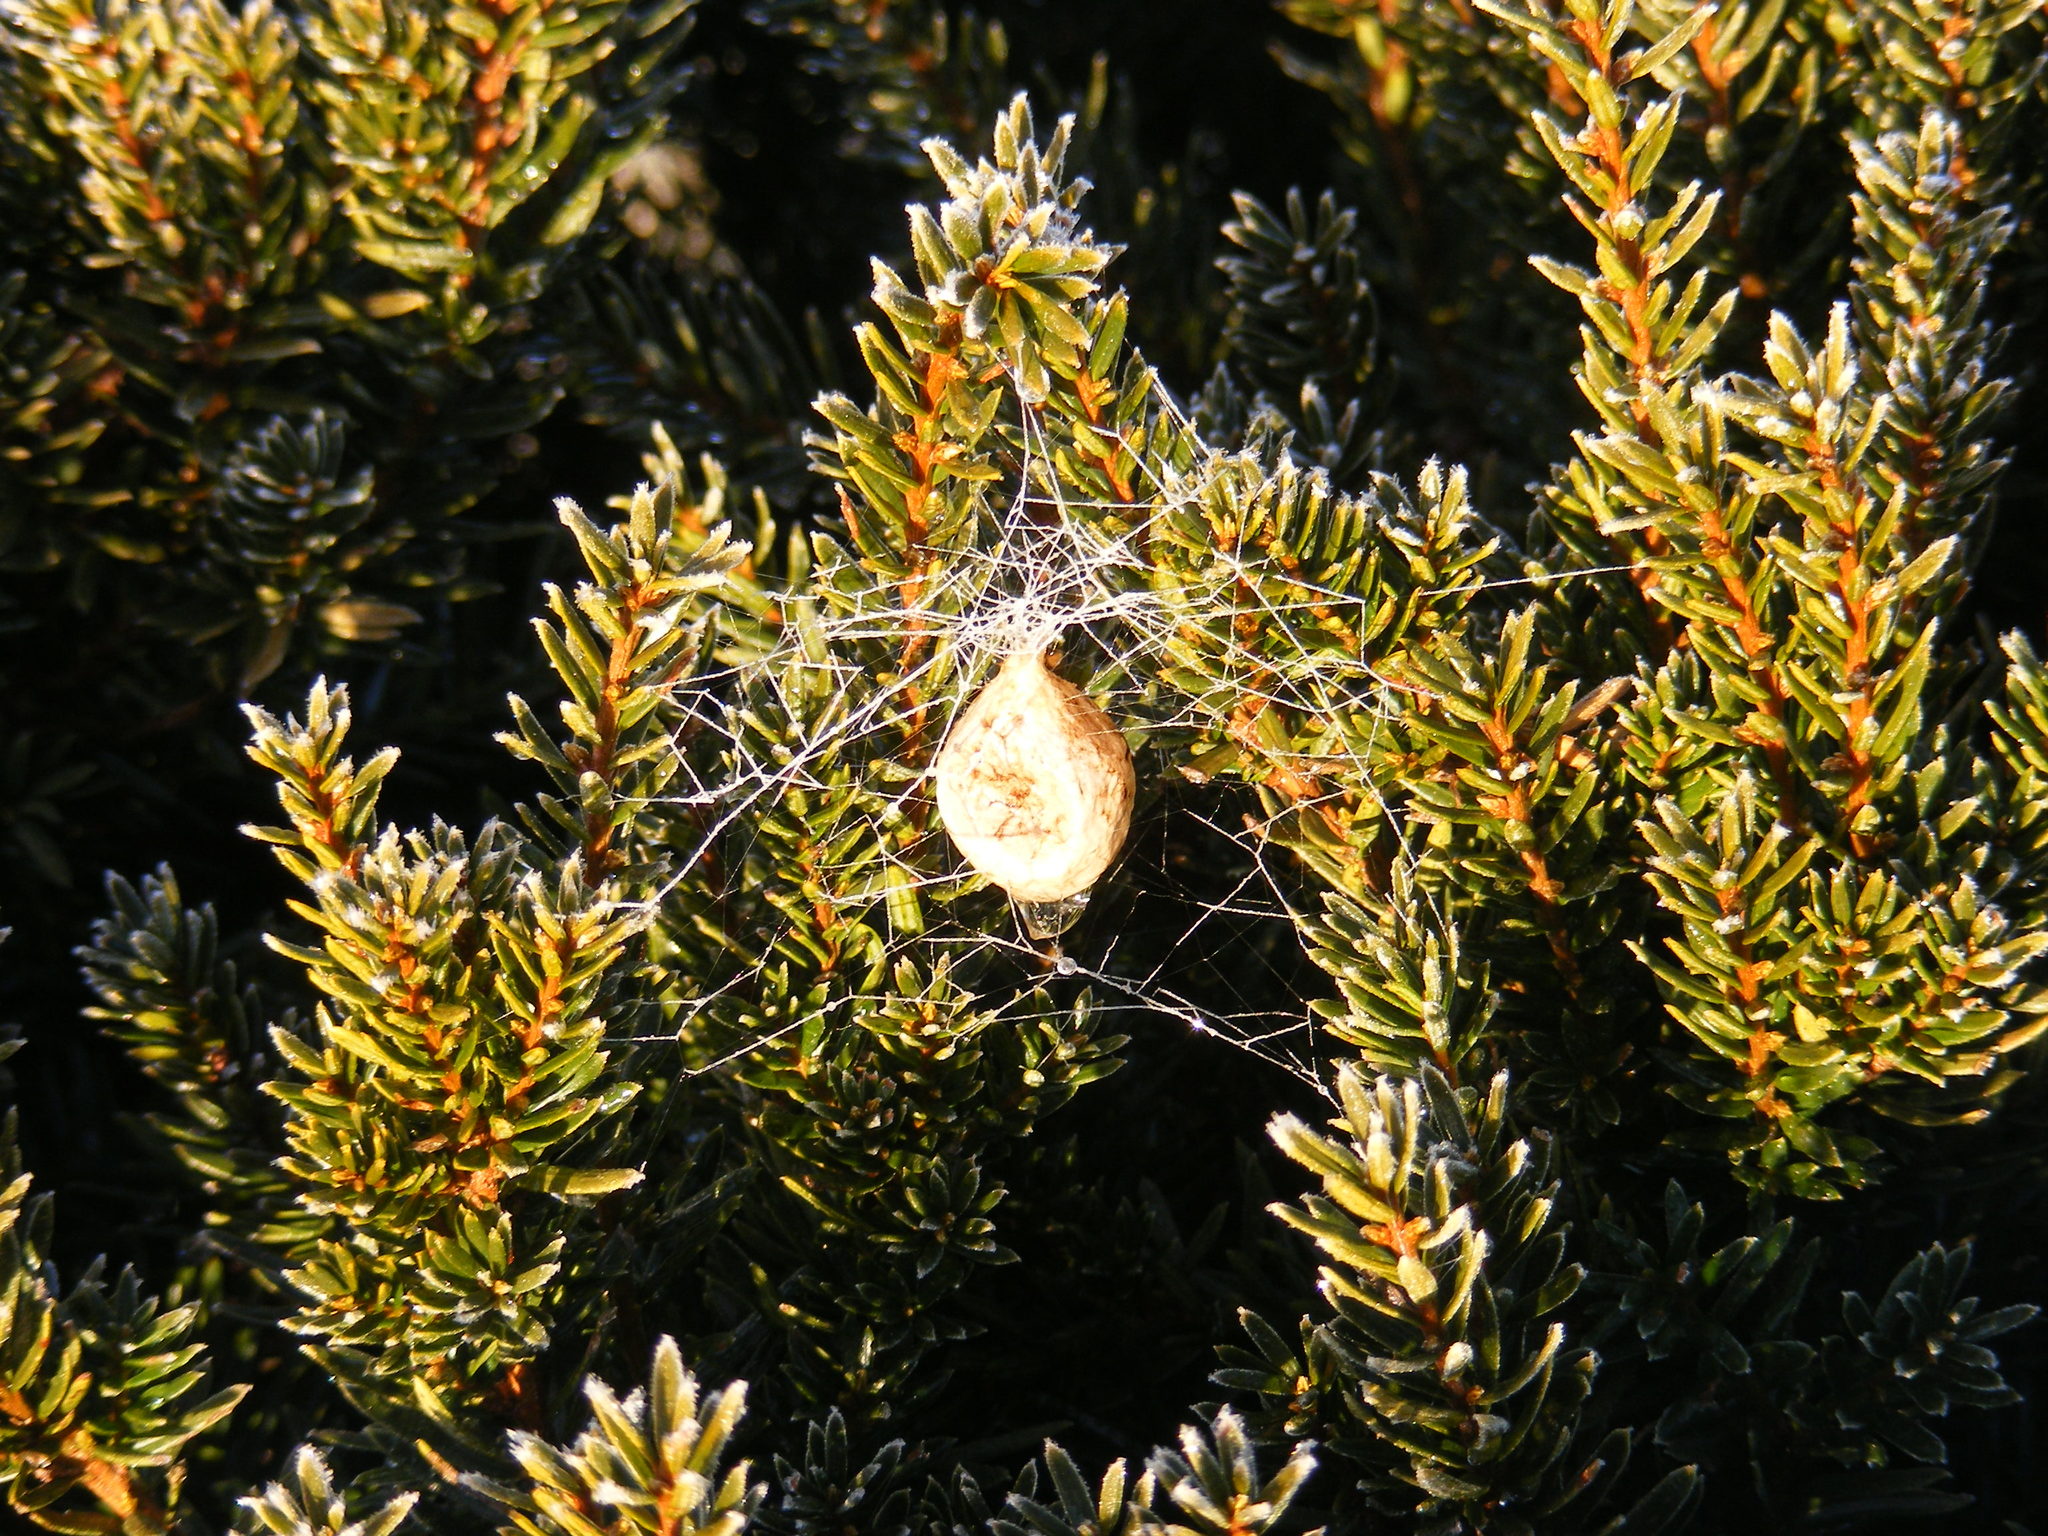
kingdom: Animalia
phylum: Arthropoda
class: Arachnida
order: Araneae
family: Araneidae
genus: Argiope
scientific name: Argiope aurantia
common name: Orb weavers
